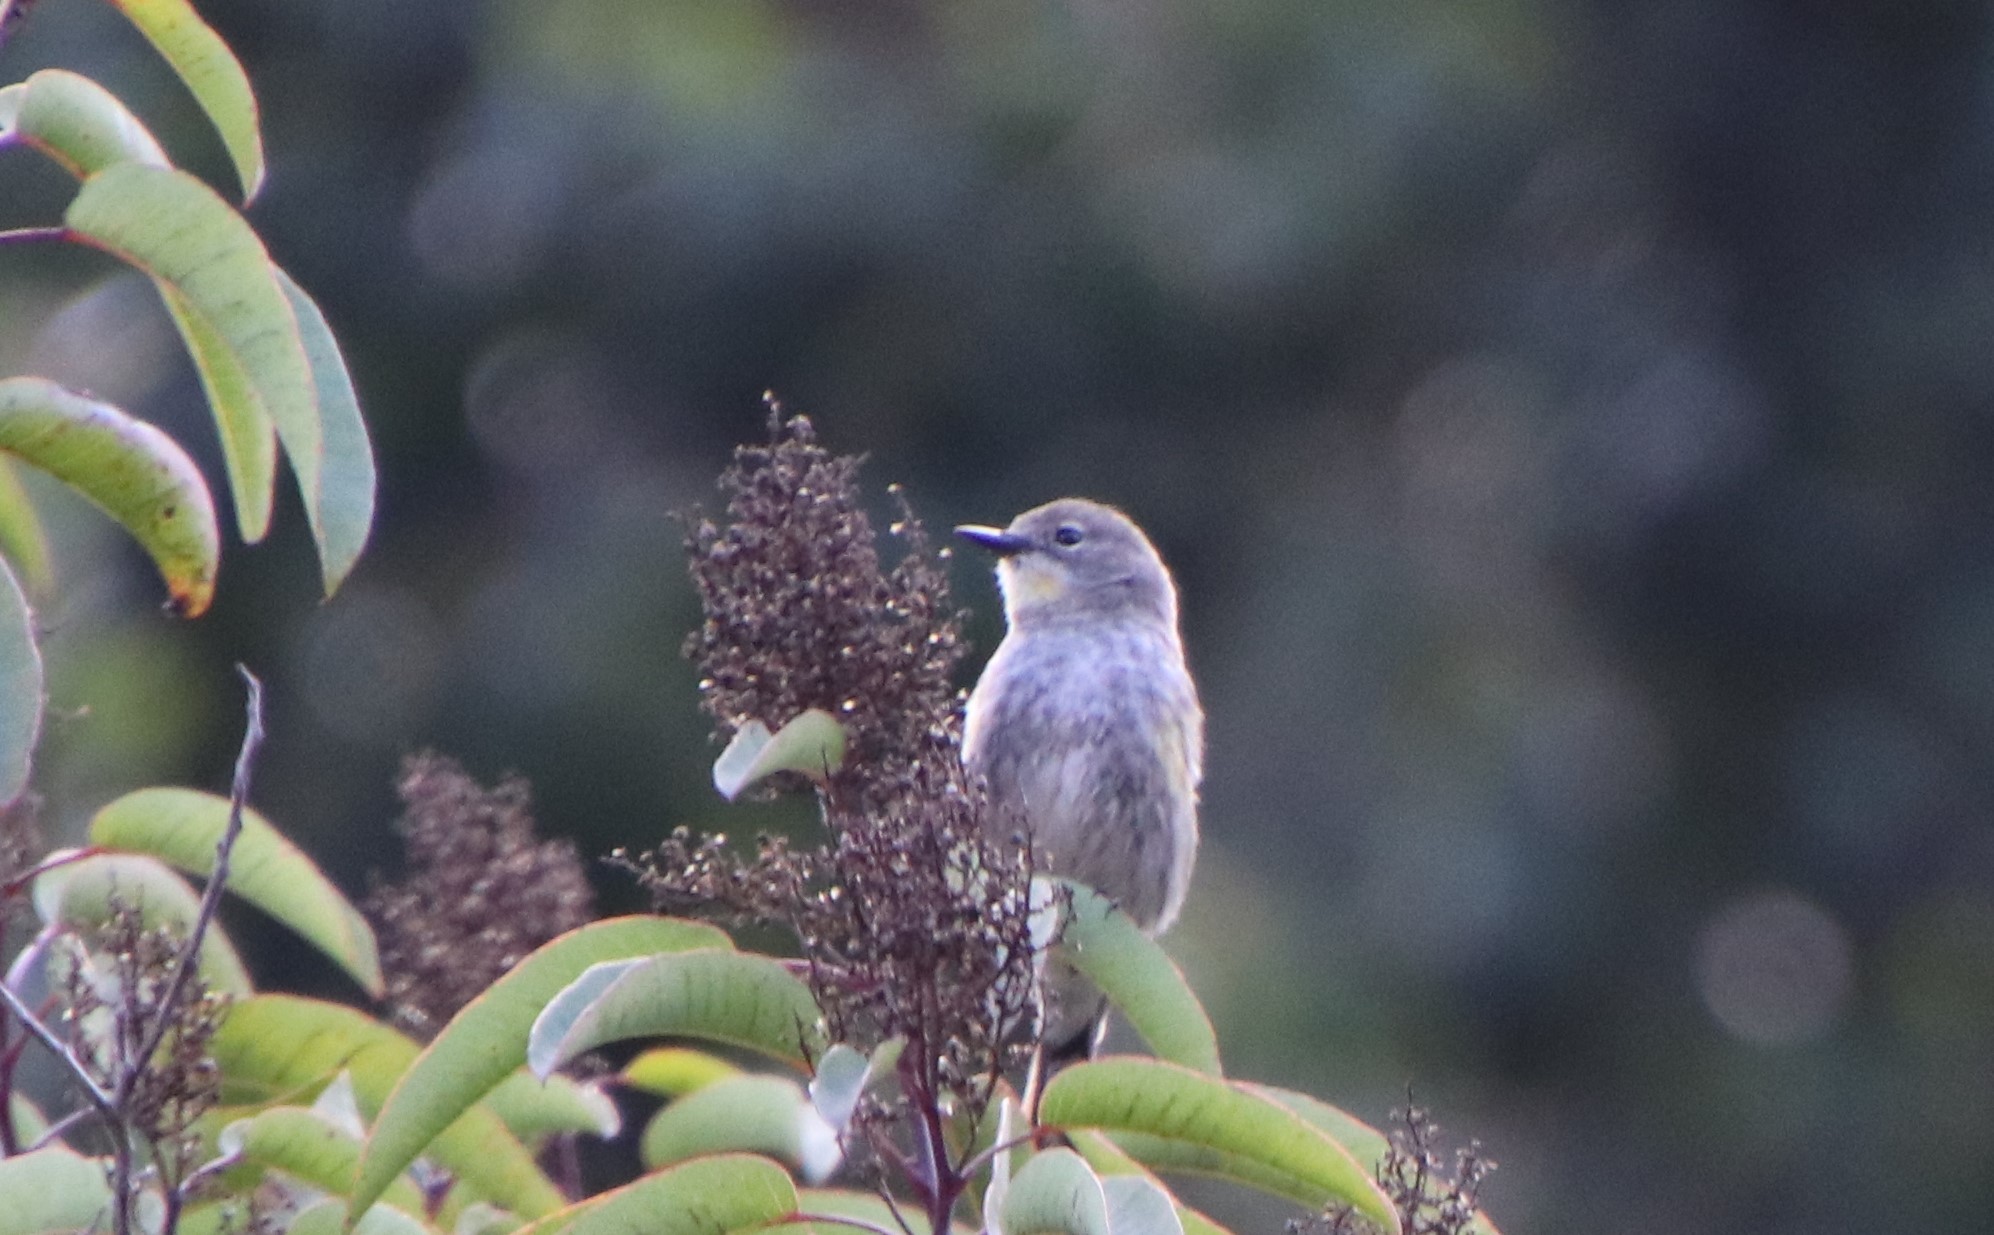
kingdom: Animalia
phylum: Chordata
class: Aves
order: Passeriformes
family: Parulidae
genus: Setophaga
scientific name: Setophaga auduboni
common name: Audubon's warbler
